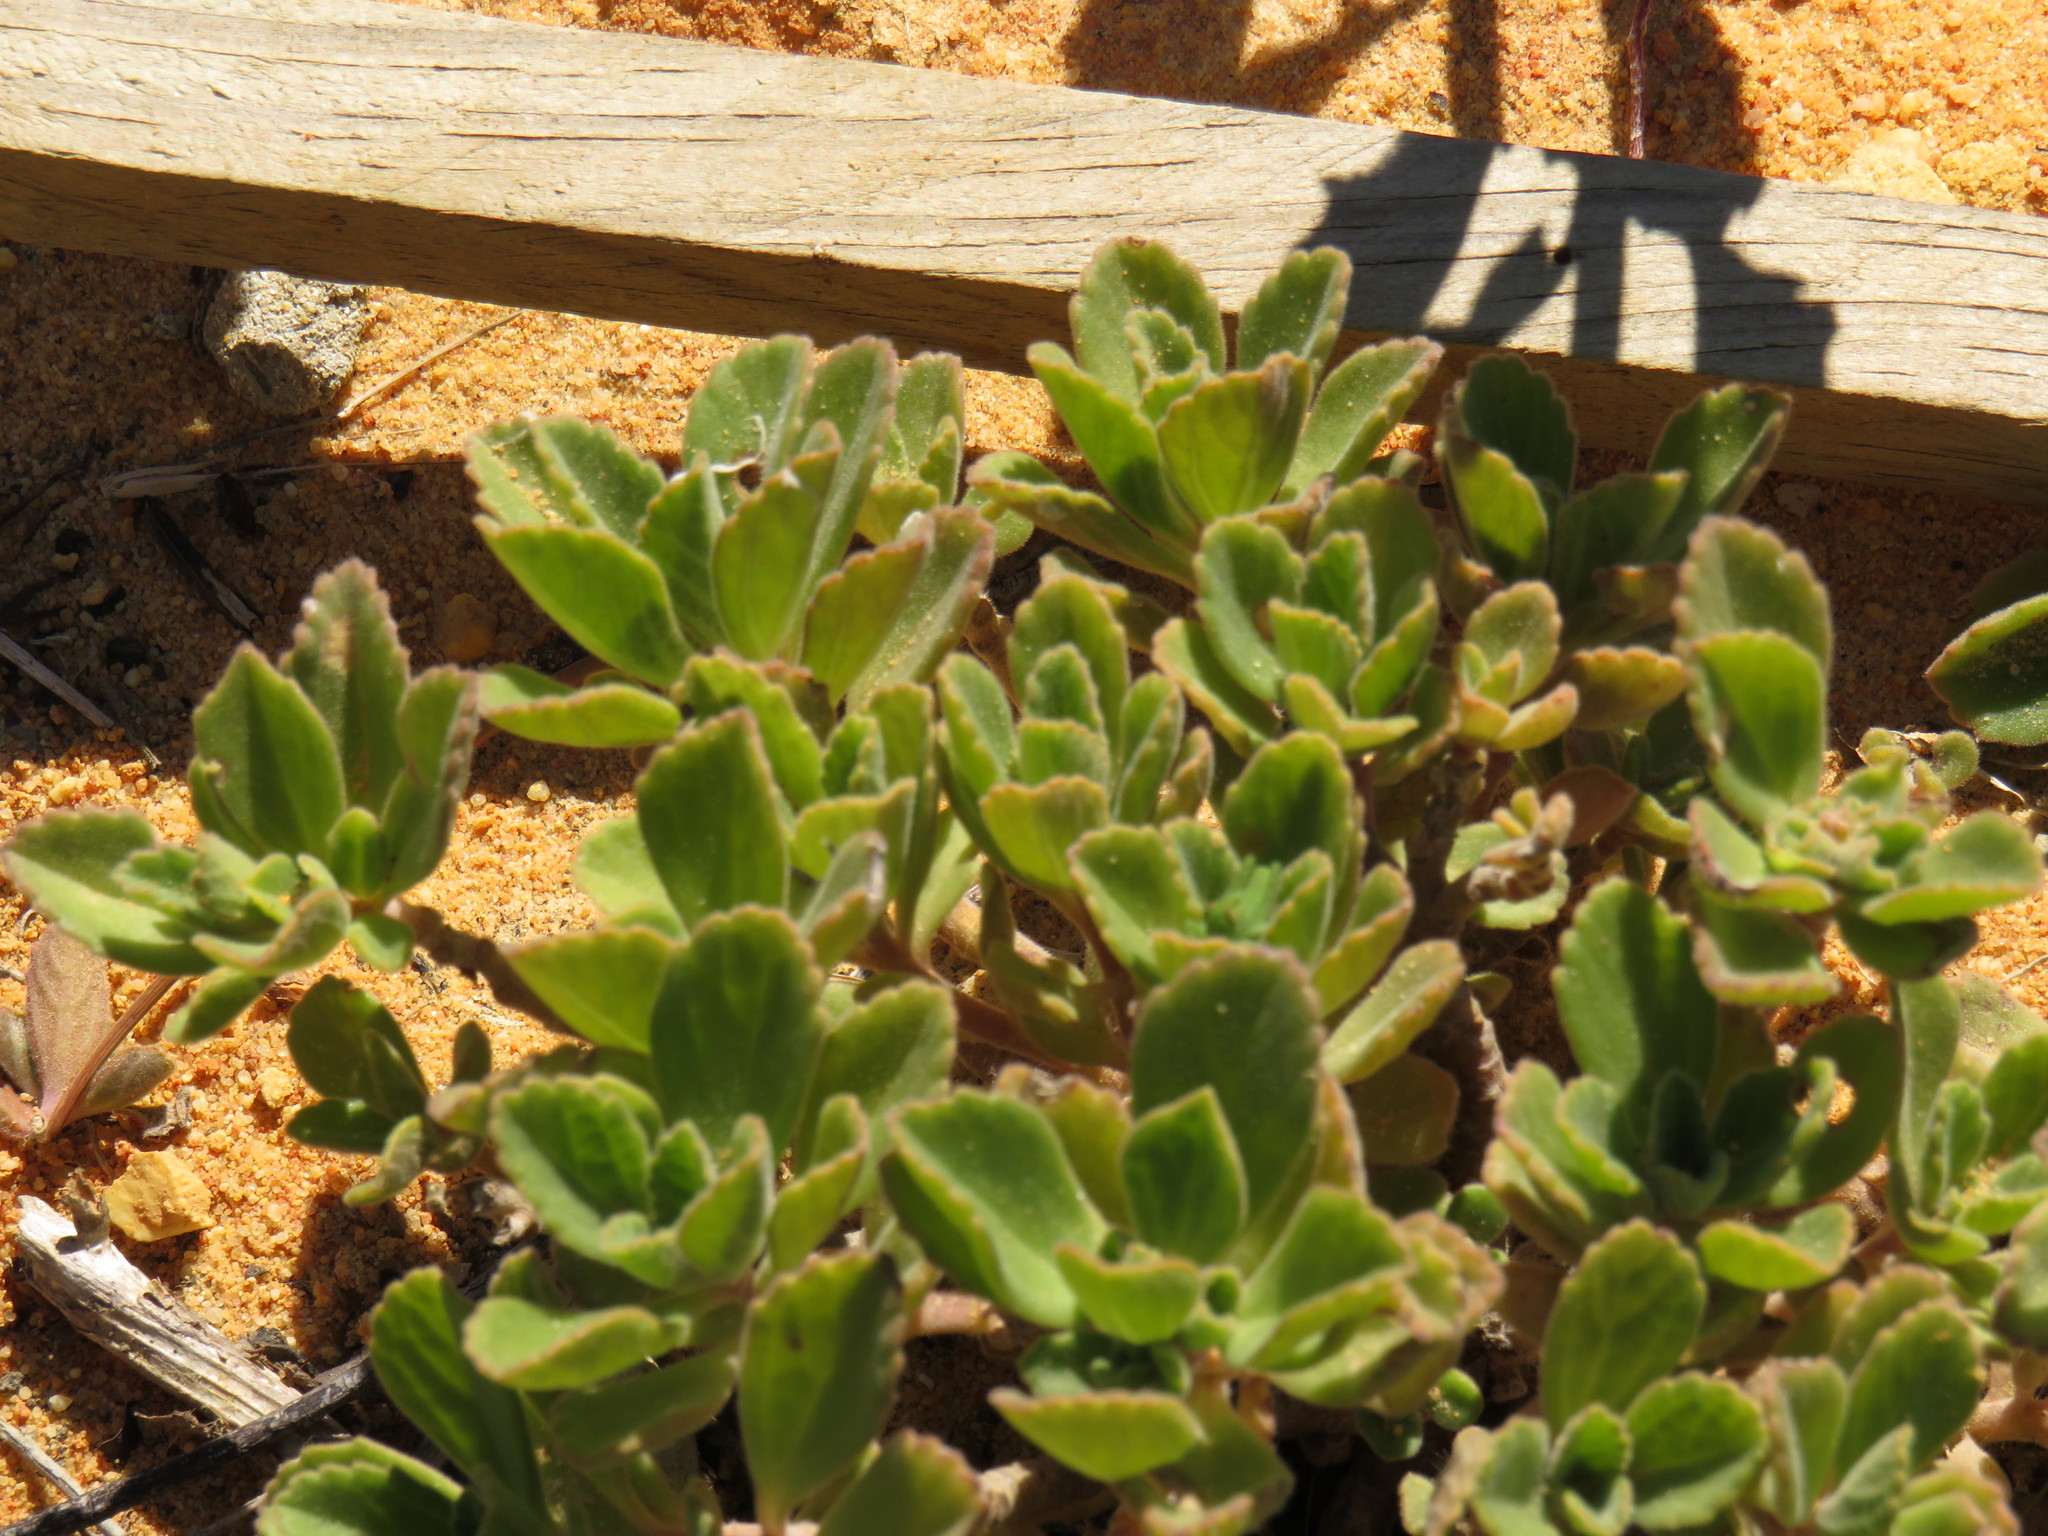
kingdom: Plantae
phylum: Tracheophyta
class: Magnoliopsida
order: Lamiales
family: Lamiaceae
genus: Coleus
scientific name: Coleus neochilus
